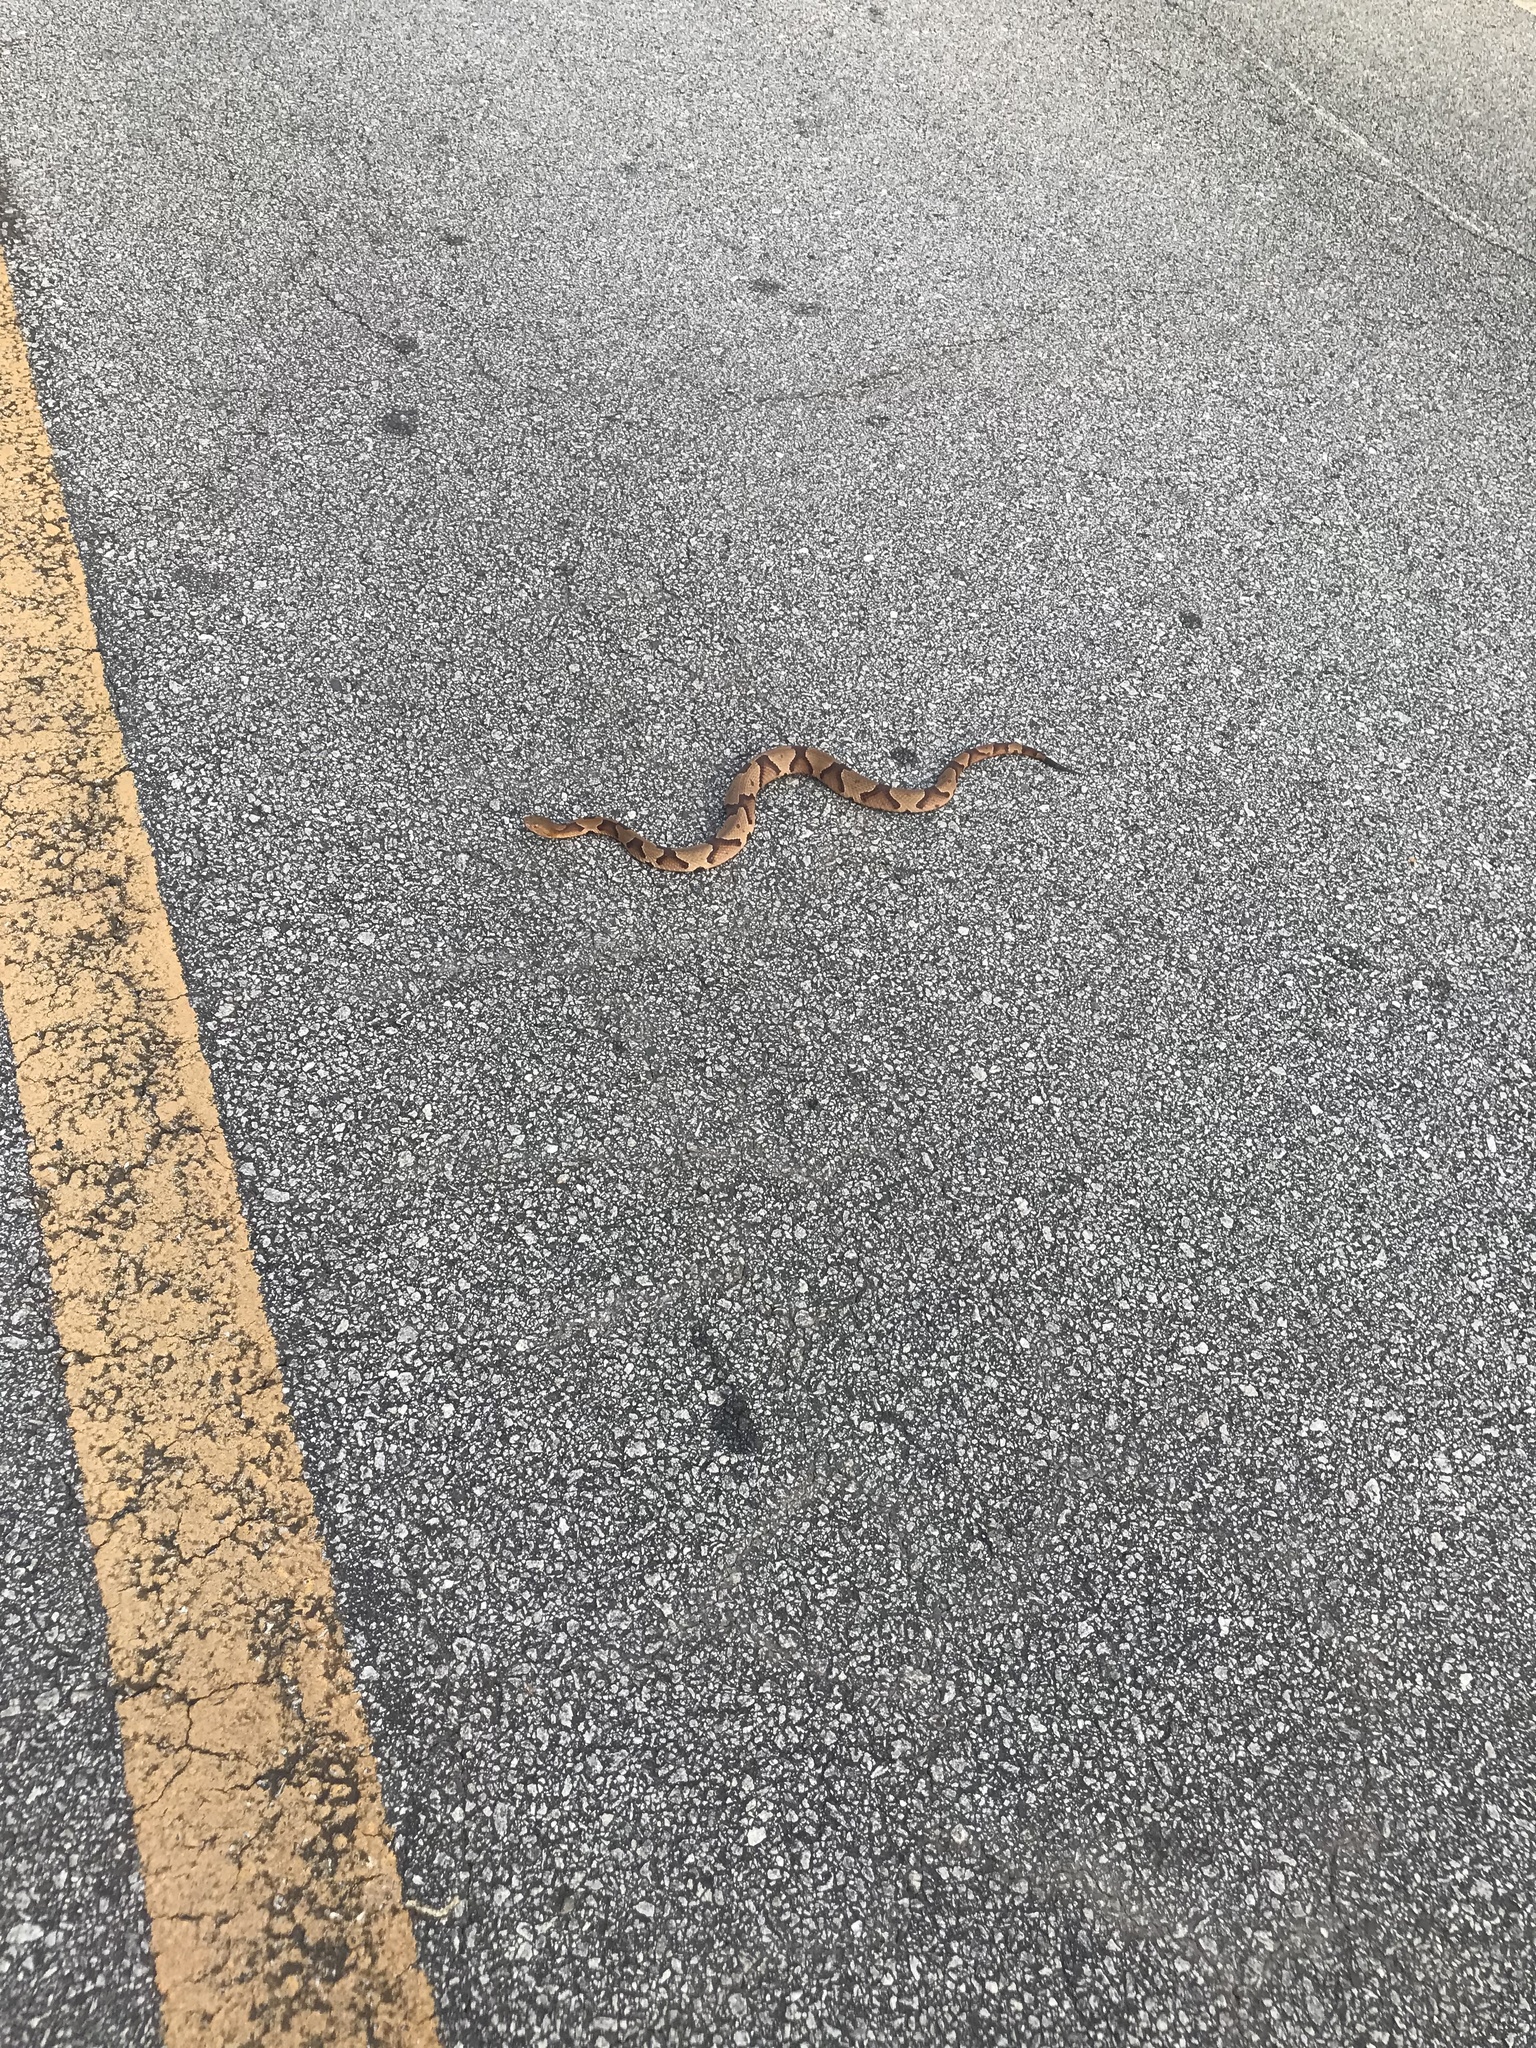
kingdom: Animalia
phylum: Chordata
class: Squamata
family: Viperidae
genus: Agkistrodon
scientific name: Agkistrodon contortrix
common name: Northern copperhead
